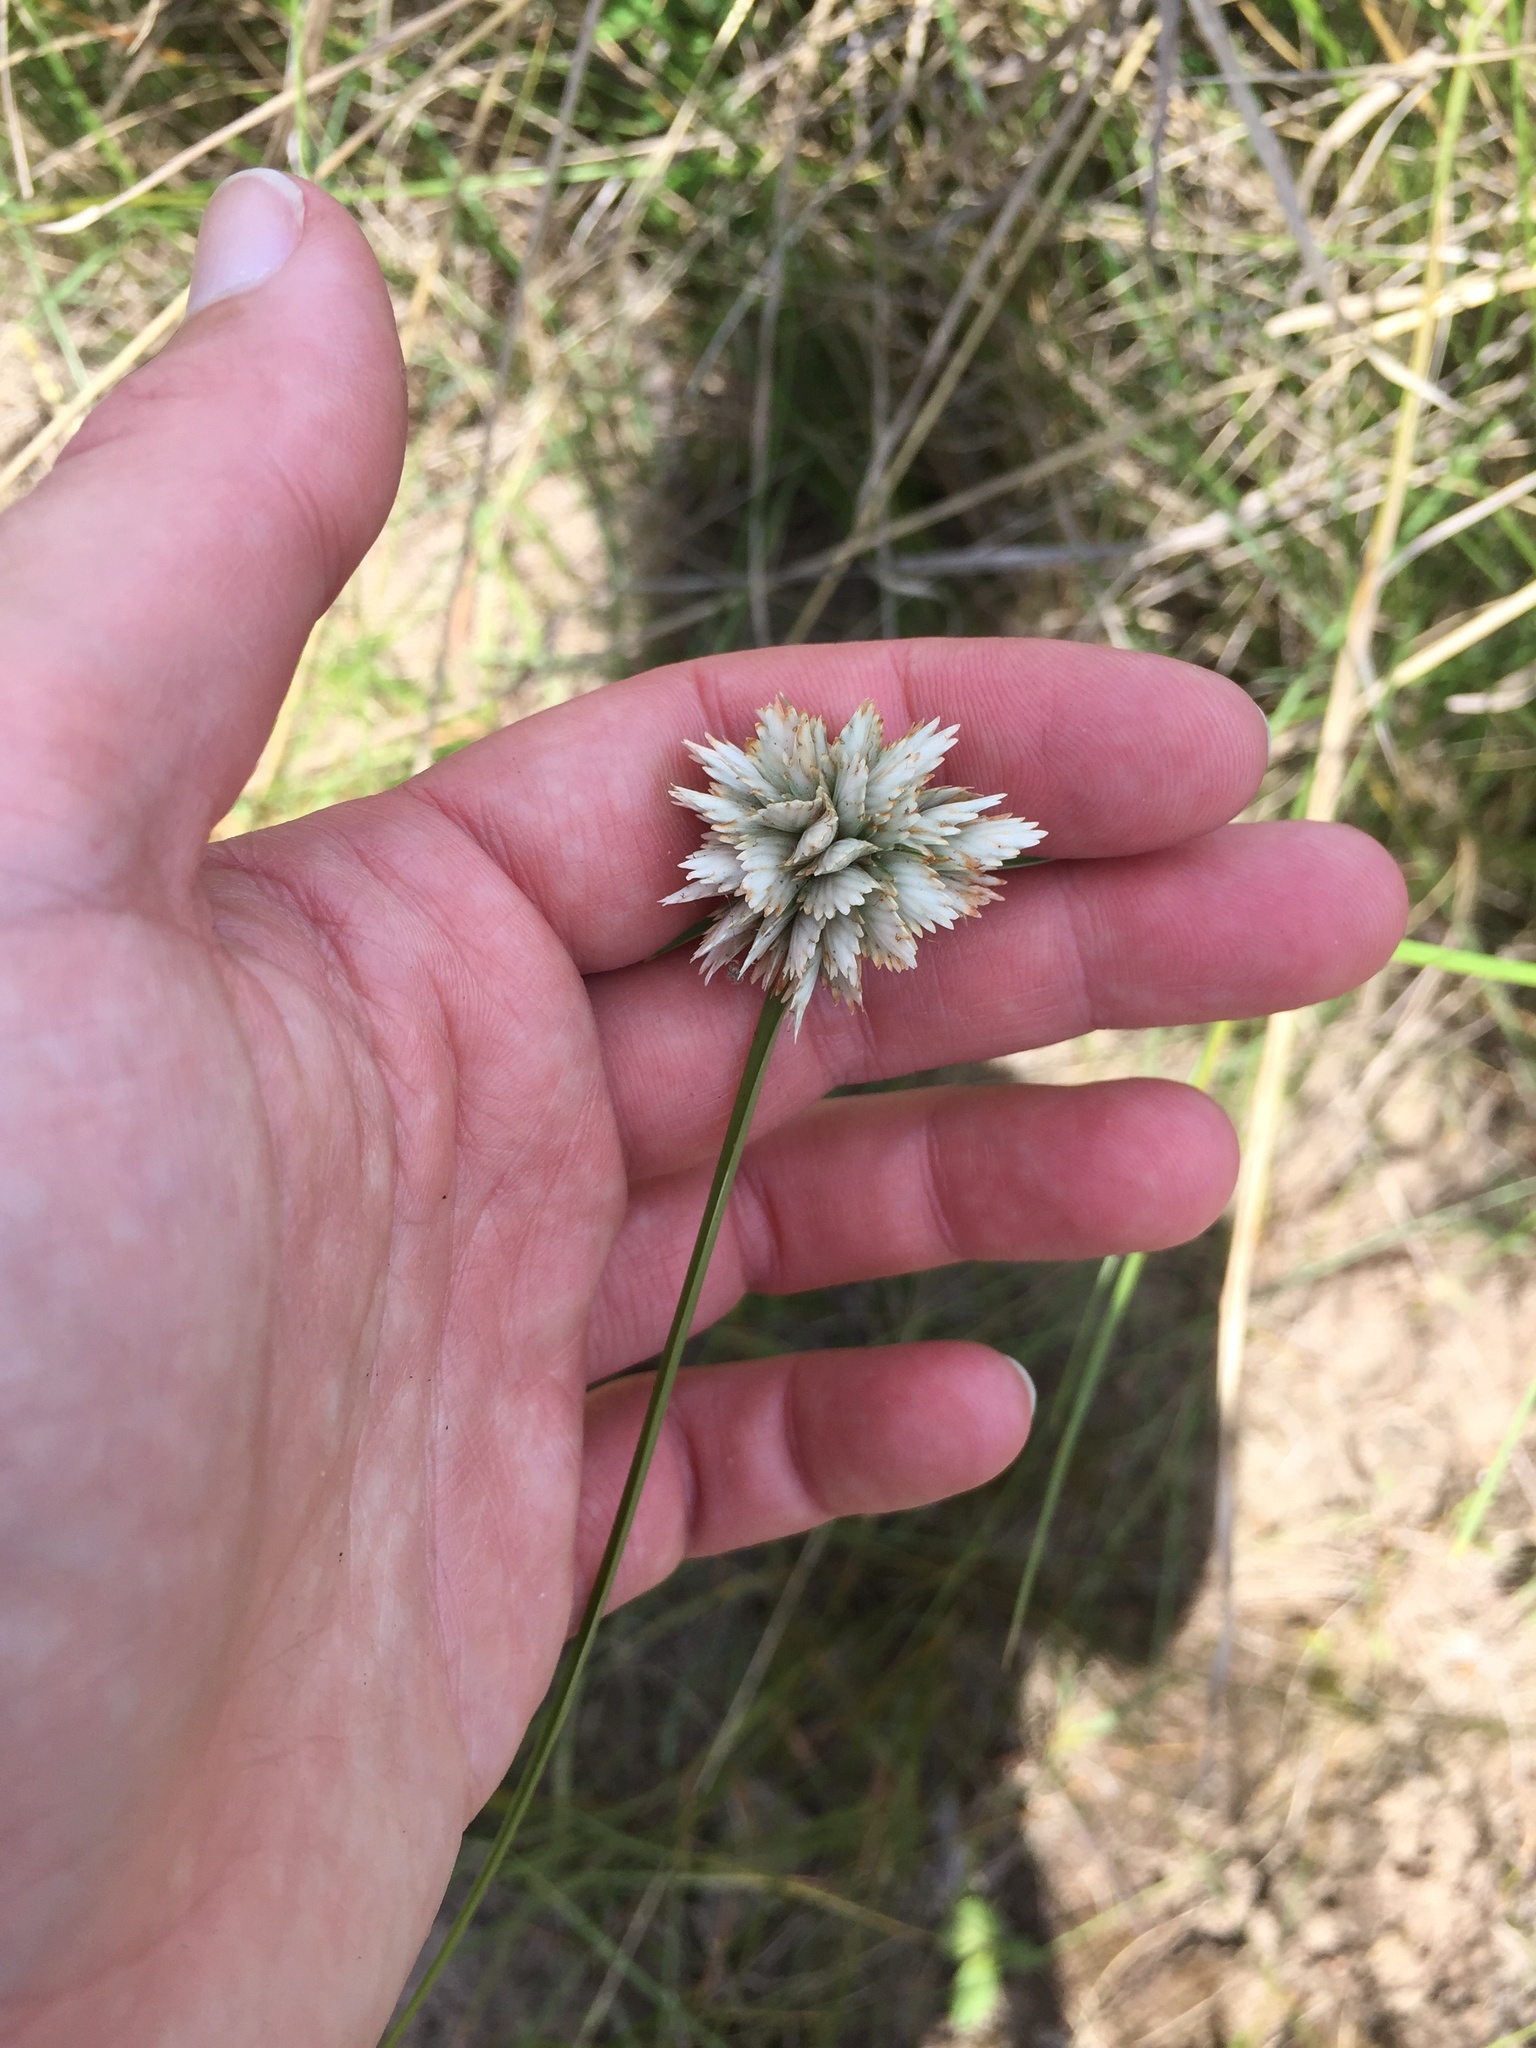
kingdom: Plantae
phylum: Tracheophyta
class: Liliopsida
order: Poales
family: Cyperaceae
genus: Cyperus
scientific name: Cyperus niveus
